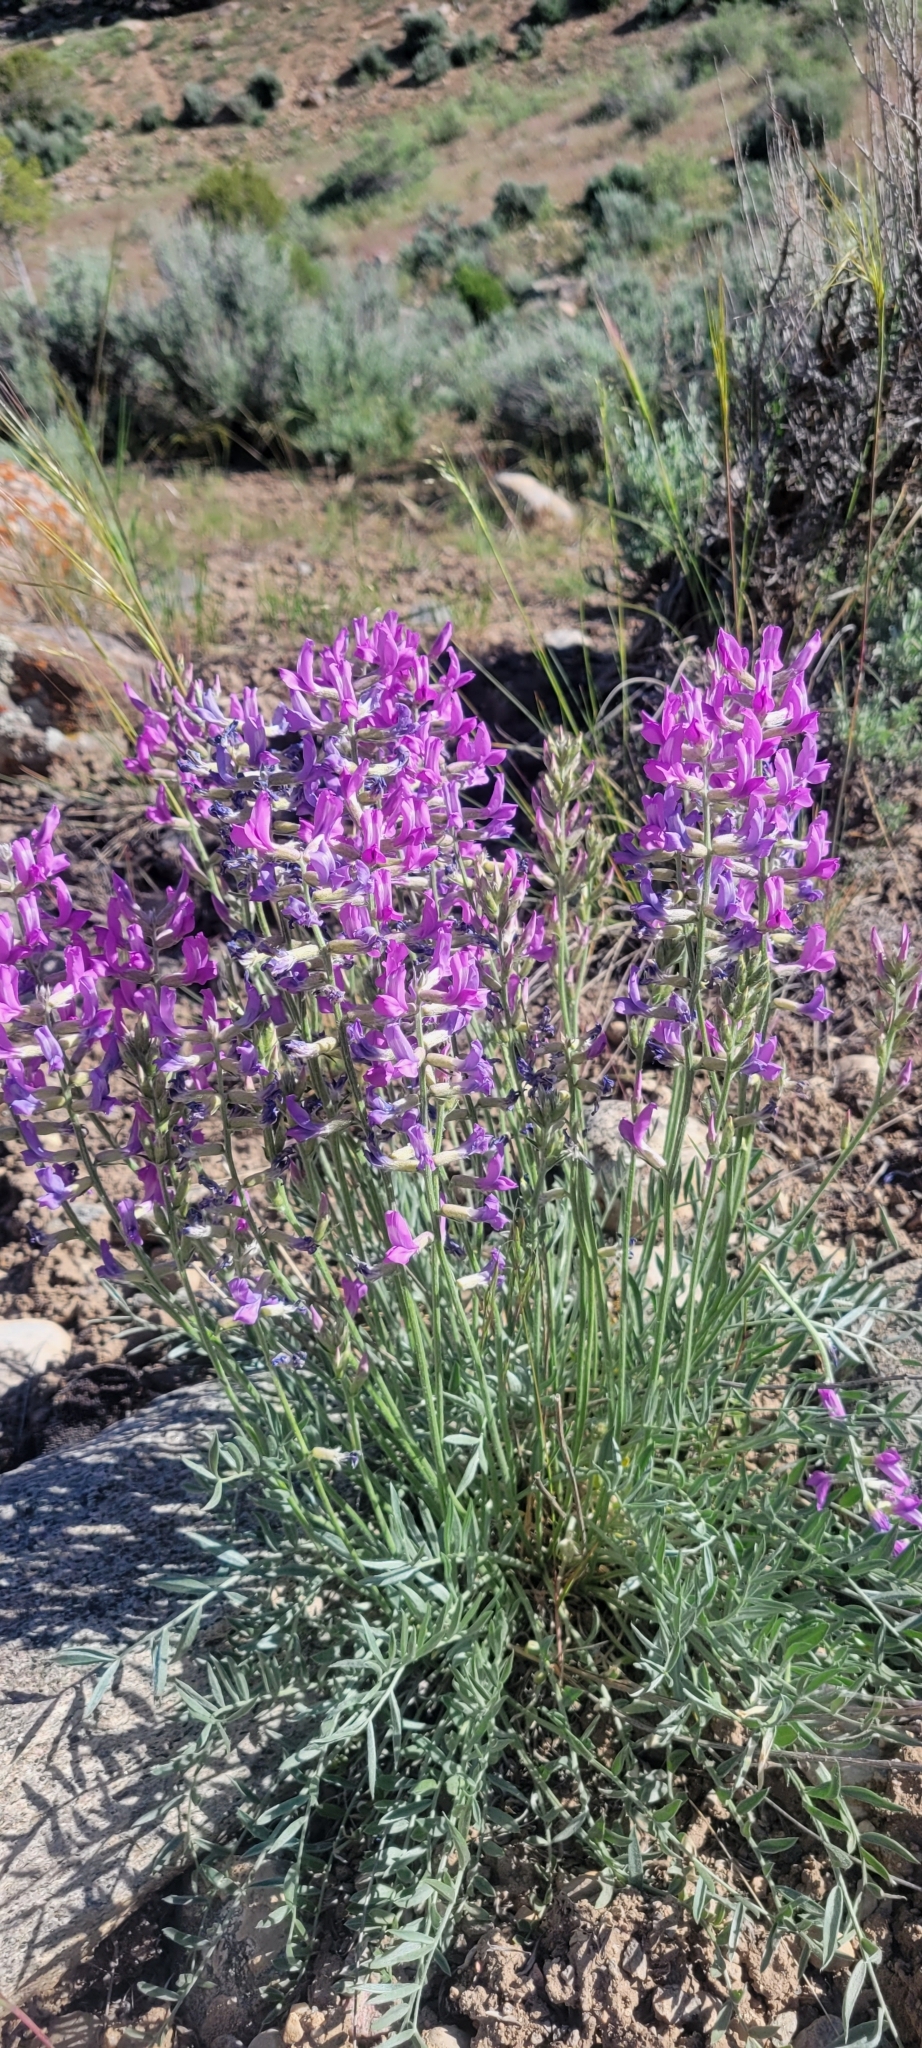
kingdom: Plantae
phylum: Tracheophyta
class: Magnoliopsida
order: Fabales
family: Fabaceae
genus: Oxytropis
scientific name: Oxytropis lambertii
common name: Purple locoweed
